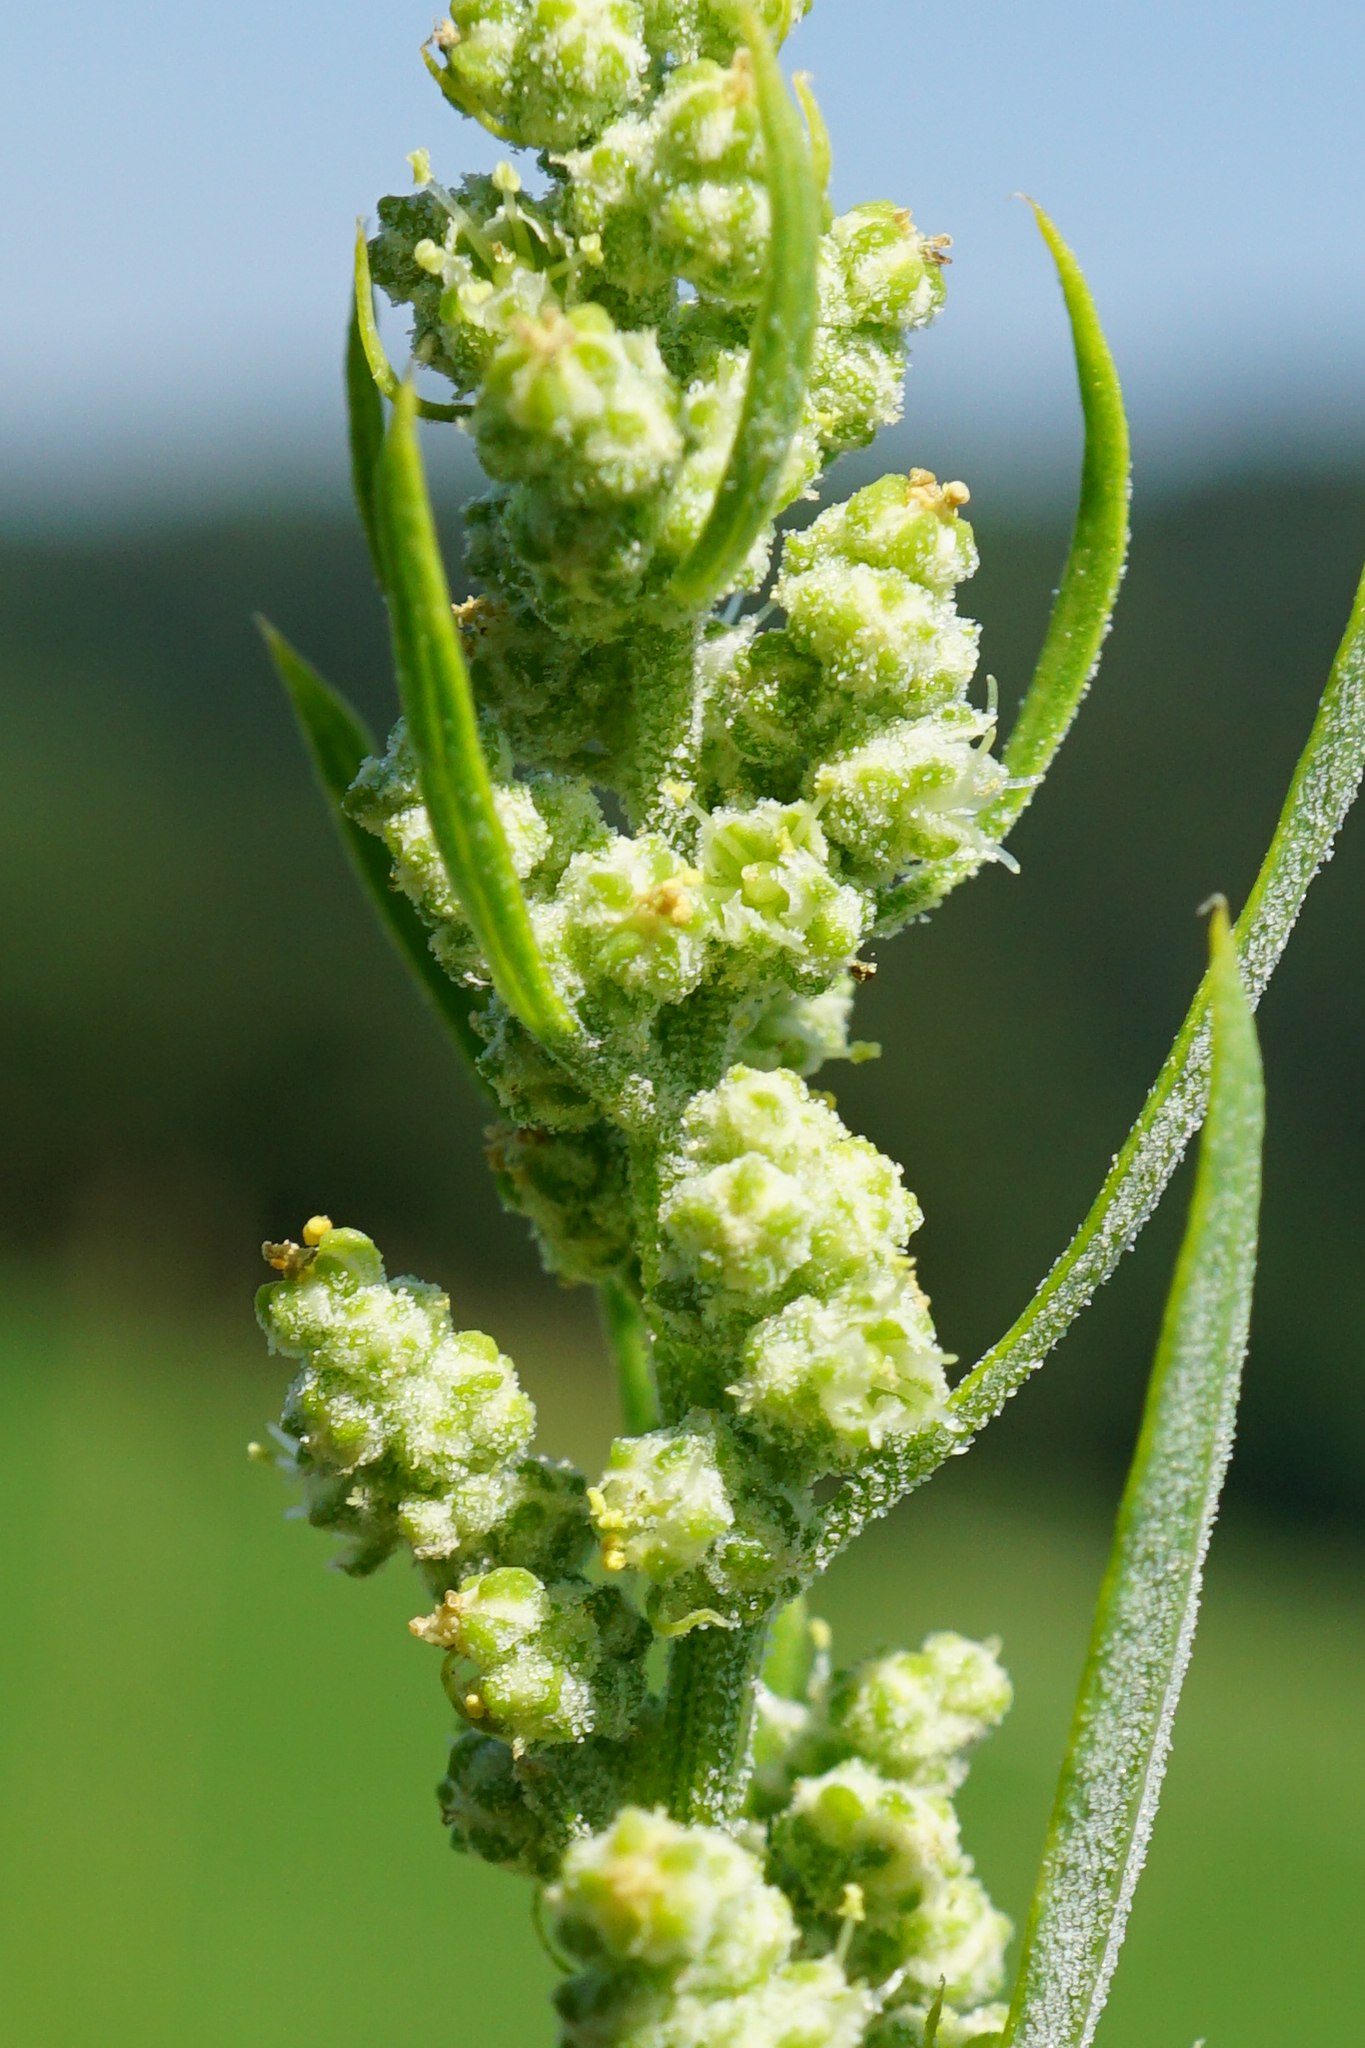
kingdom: Plantae
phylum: Tracheophyta
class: Magnoliopsida
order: Caryophyllales
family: Amaranthaceae
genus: Chenopodium
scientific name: Chenopodium album
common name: Fat-hen
